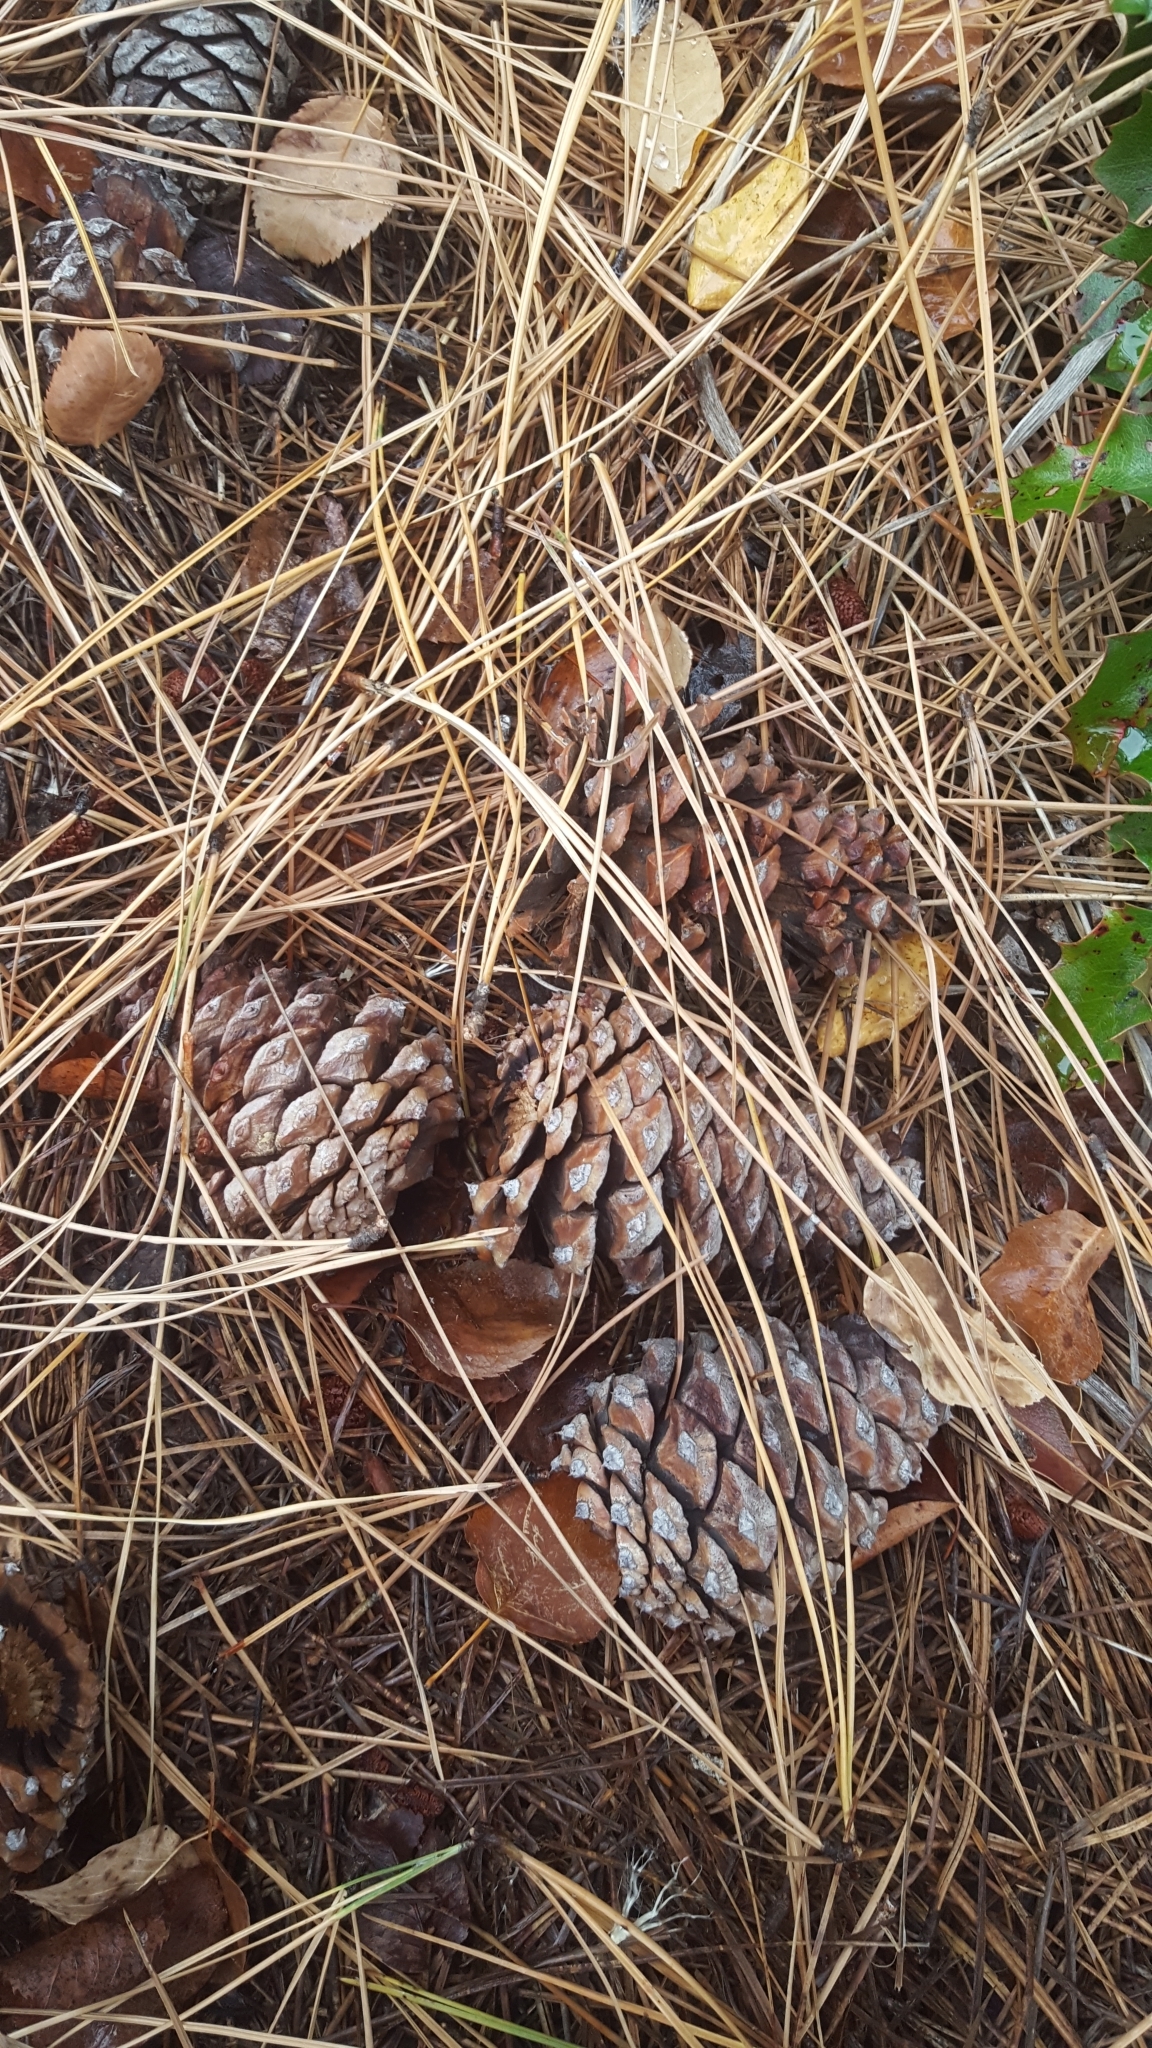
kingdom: Plantae
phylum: Tracheophyta
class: Pinopsida
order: Pinales
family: Pinaceae
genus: Pinus
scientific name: Pinus ponderosa
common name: Western yellow-pine
